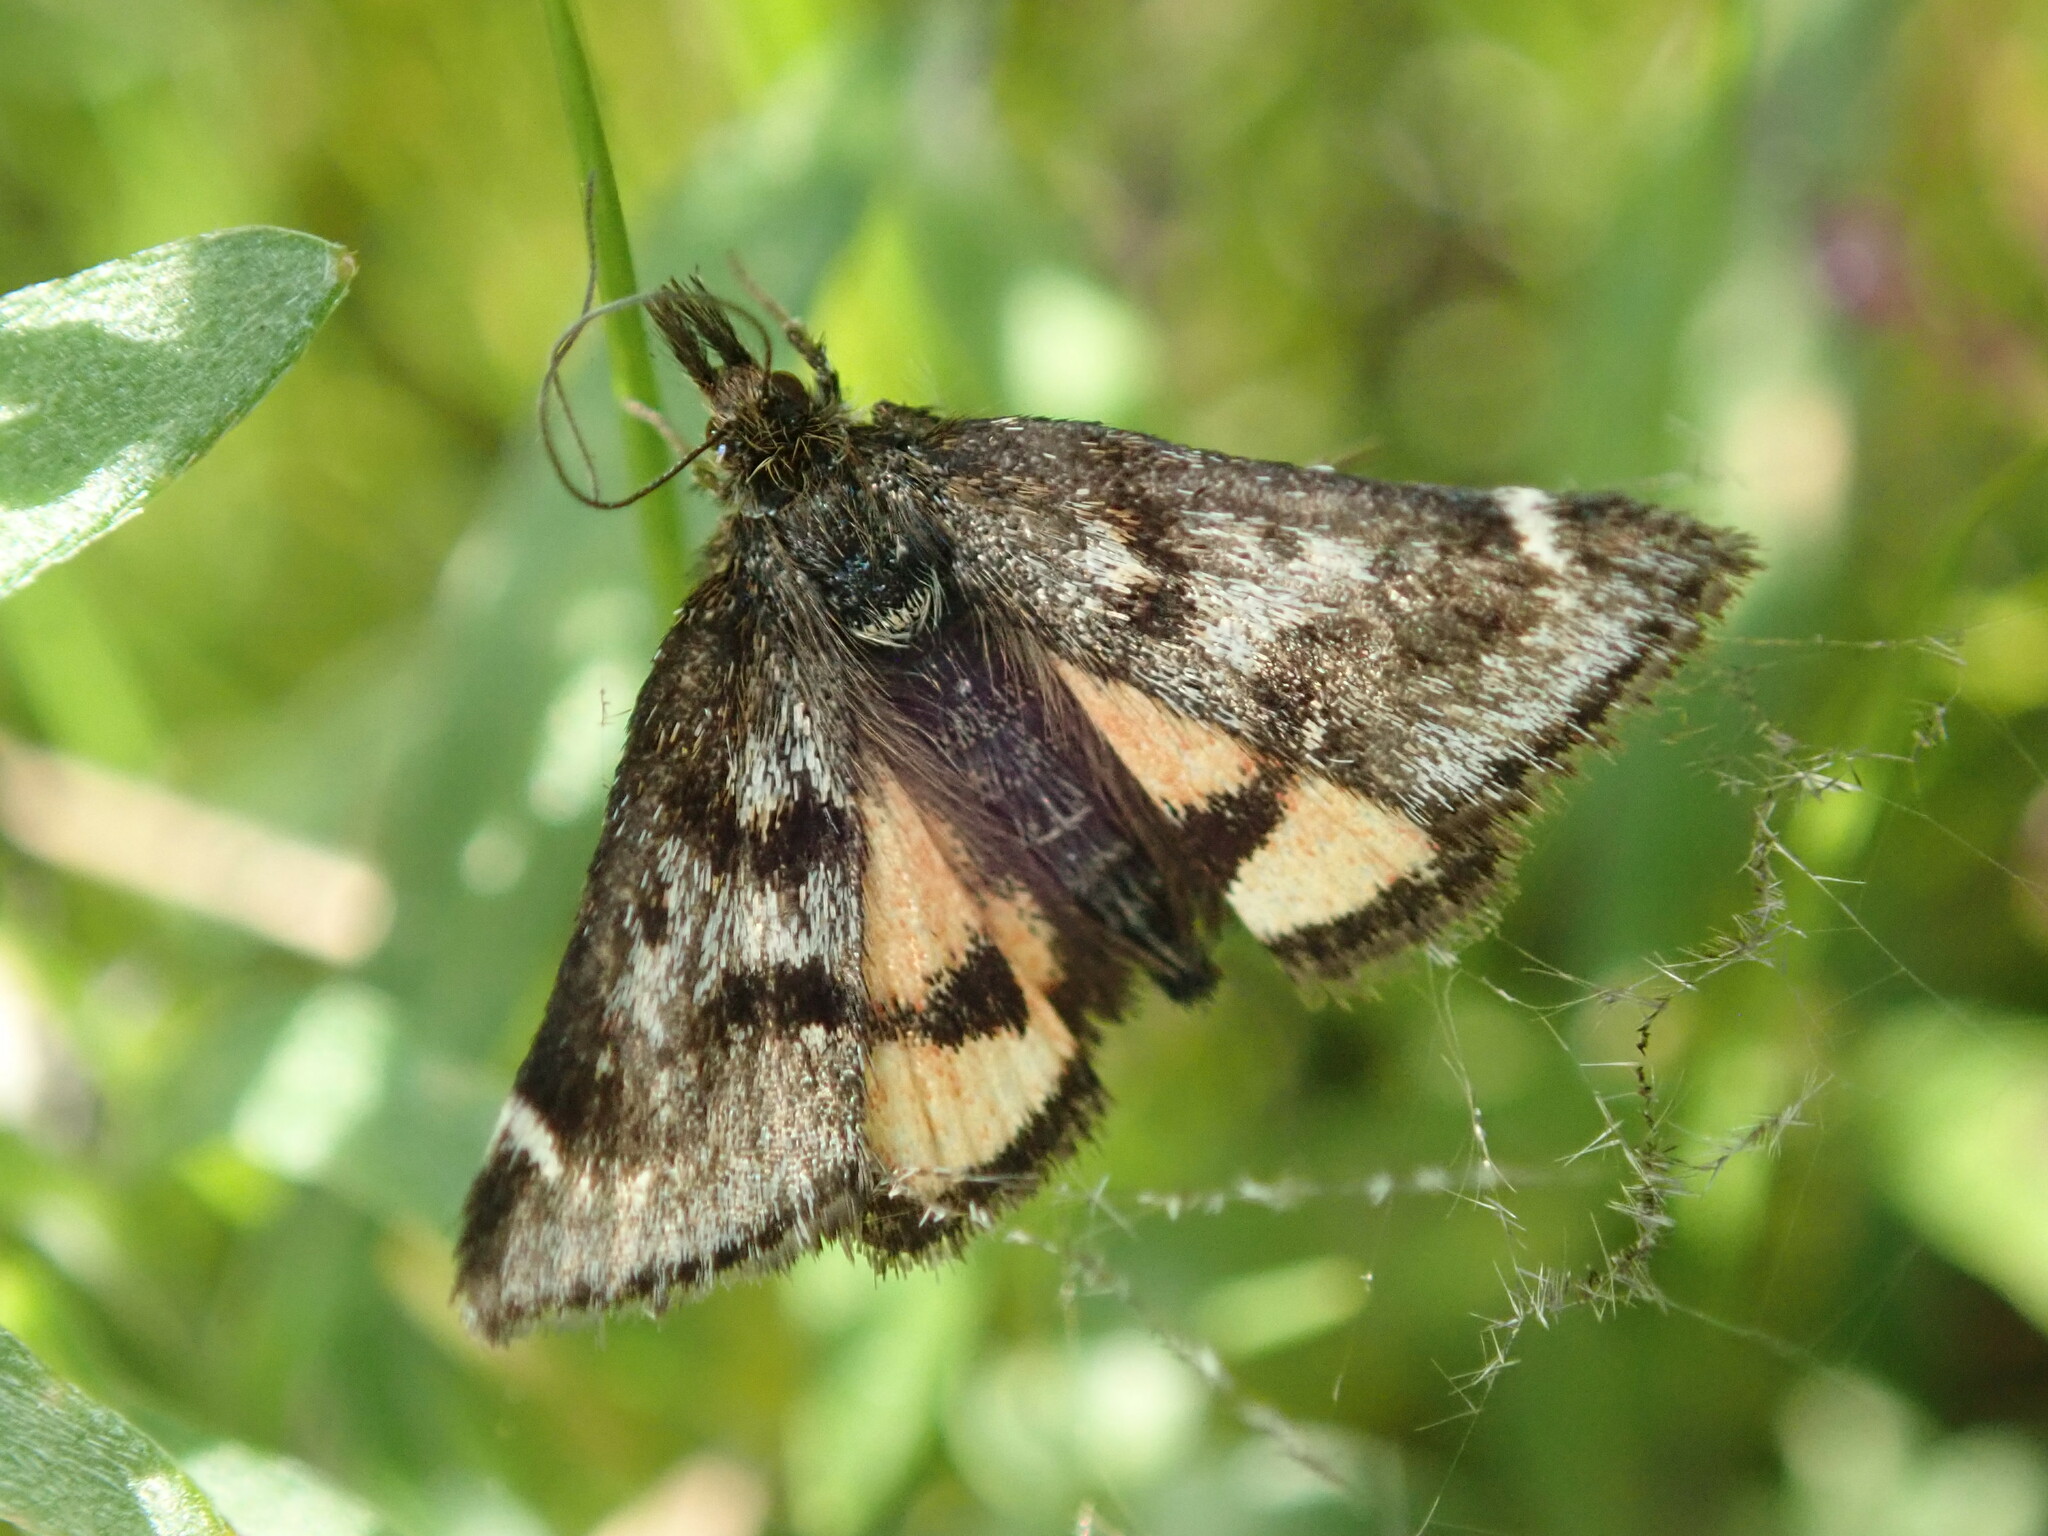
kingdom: Animalia
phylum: Arthropoda
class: Insecta
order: Lepidoptera
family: Crambidae
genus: Pyrausta
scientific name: Pyrausta dapalis
